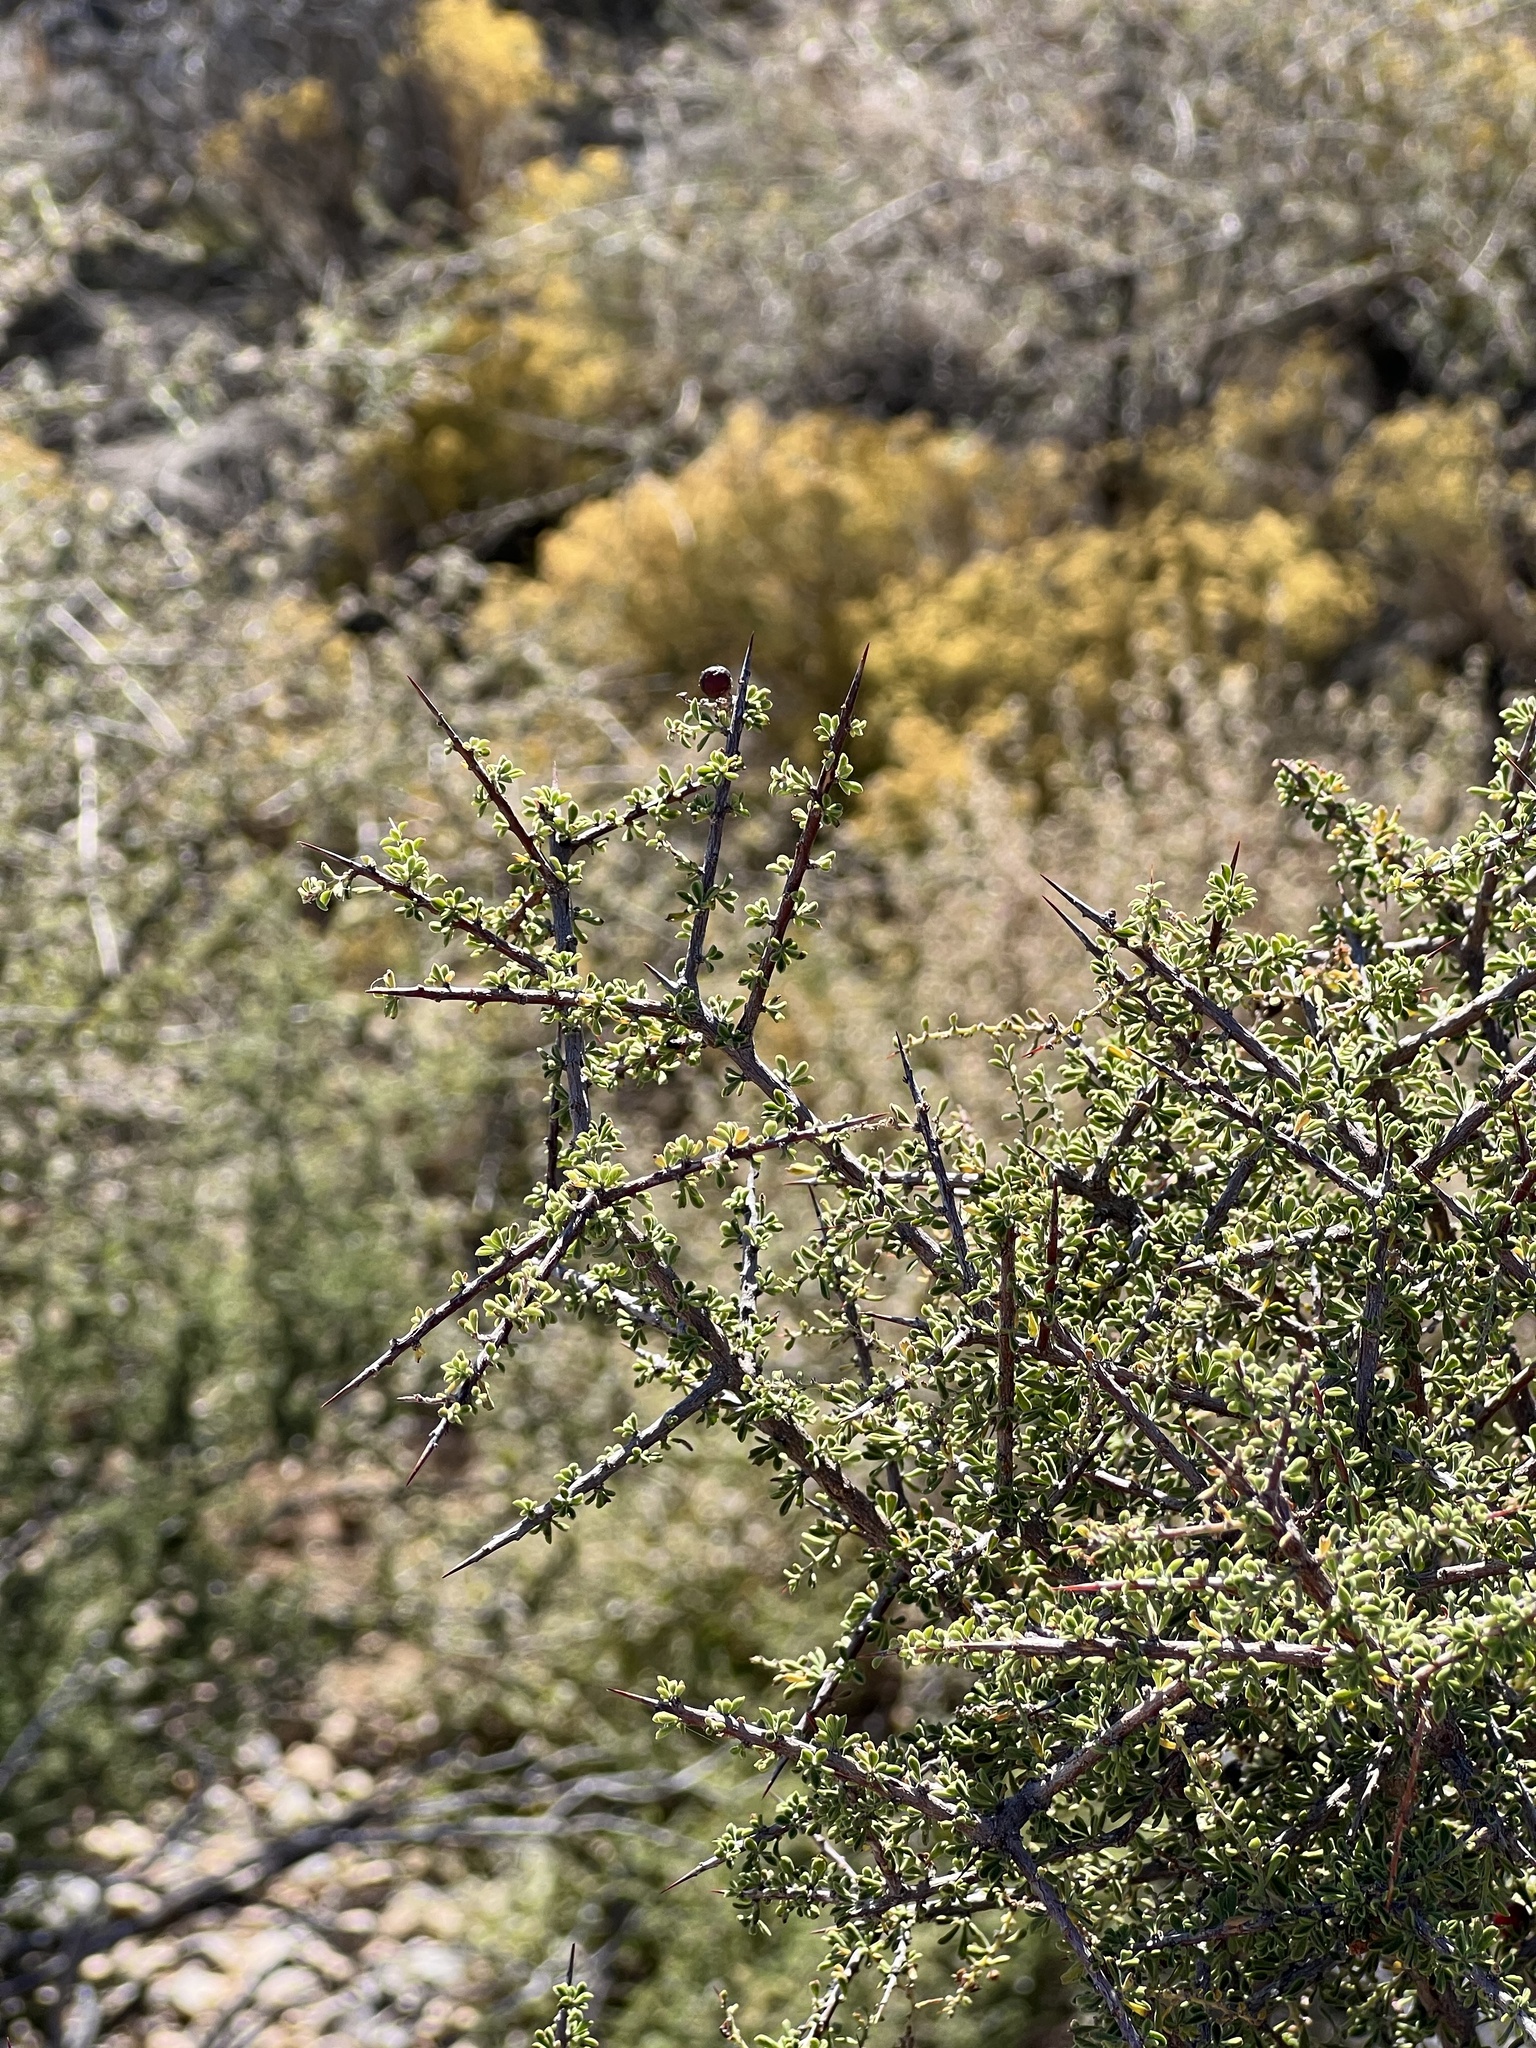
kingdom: Plantae
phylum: Tracheophyta
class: Magnoliopsida
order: Rosales
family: Rhamnaceae
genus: Condalia
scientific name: Condalia warnockii
